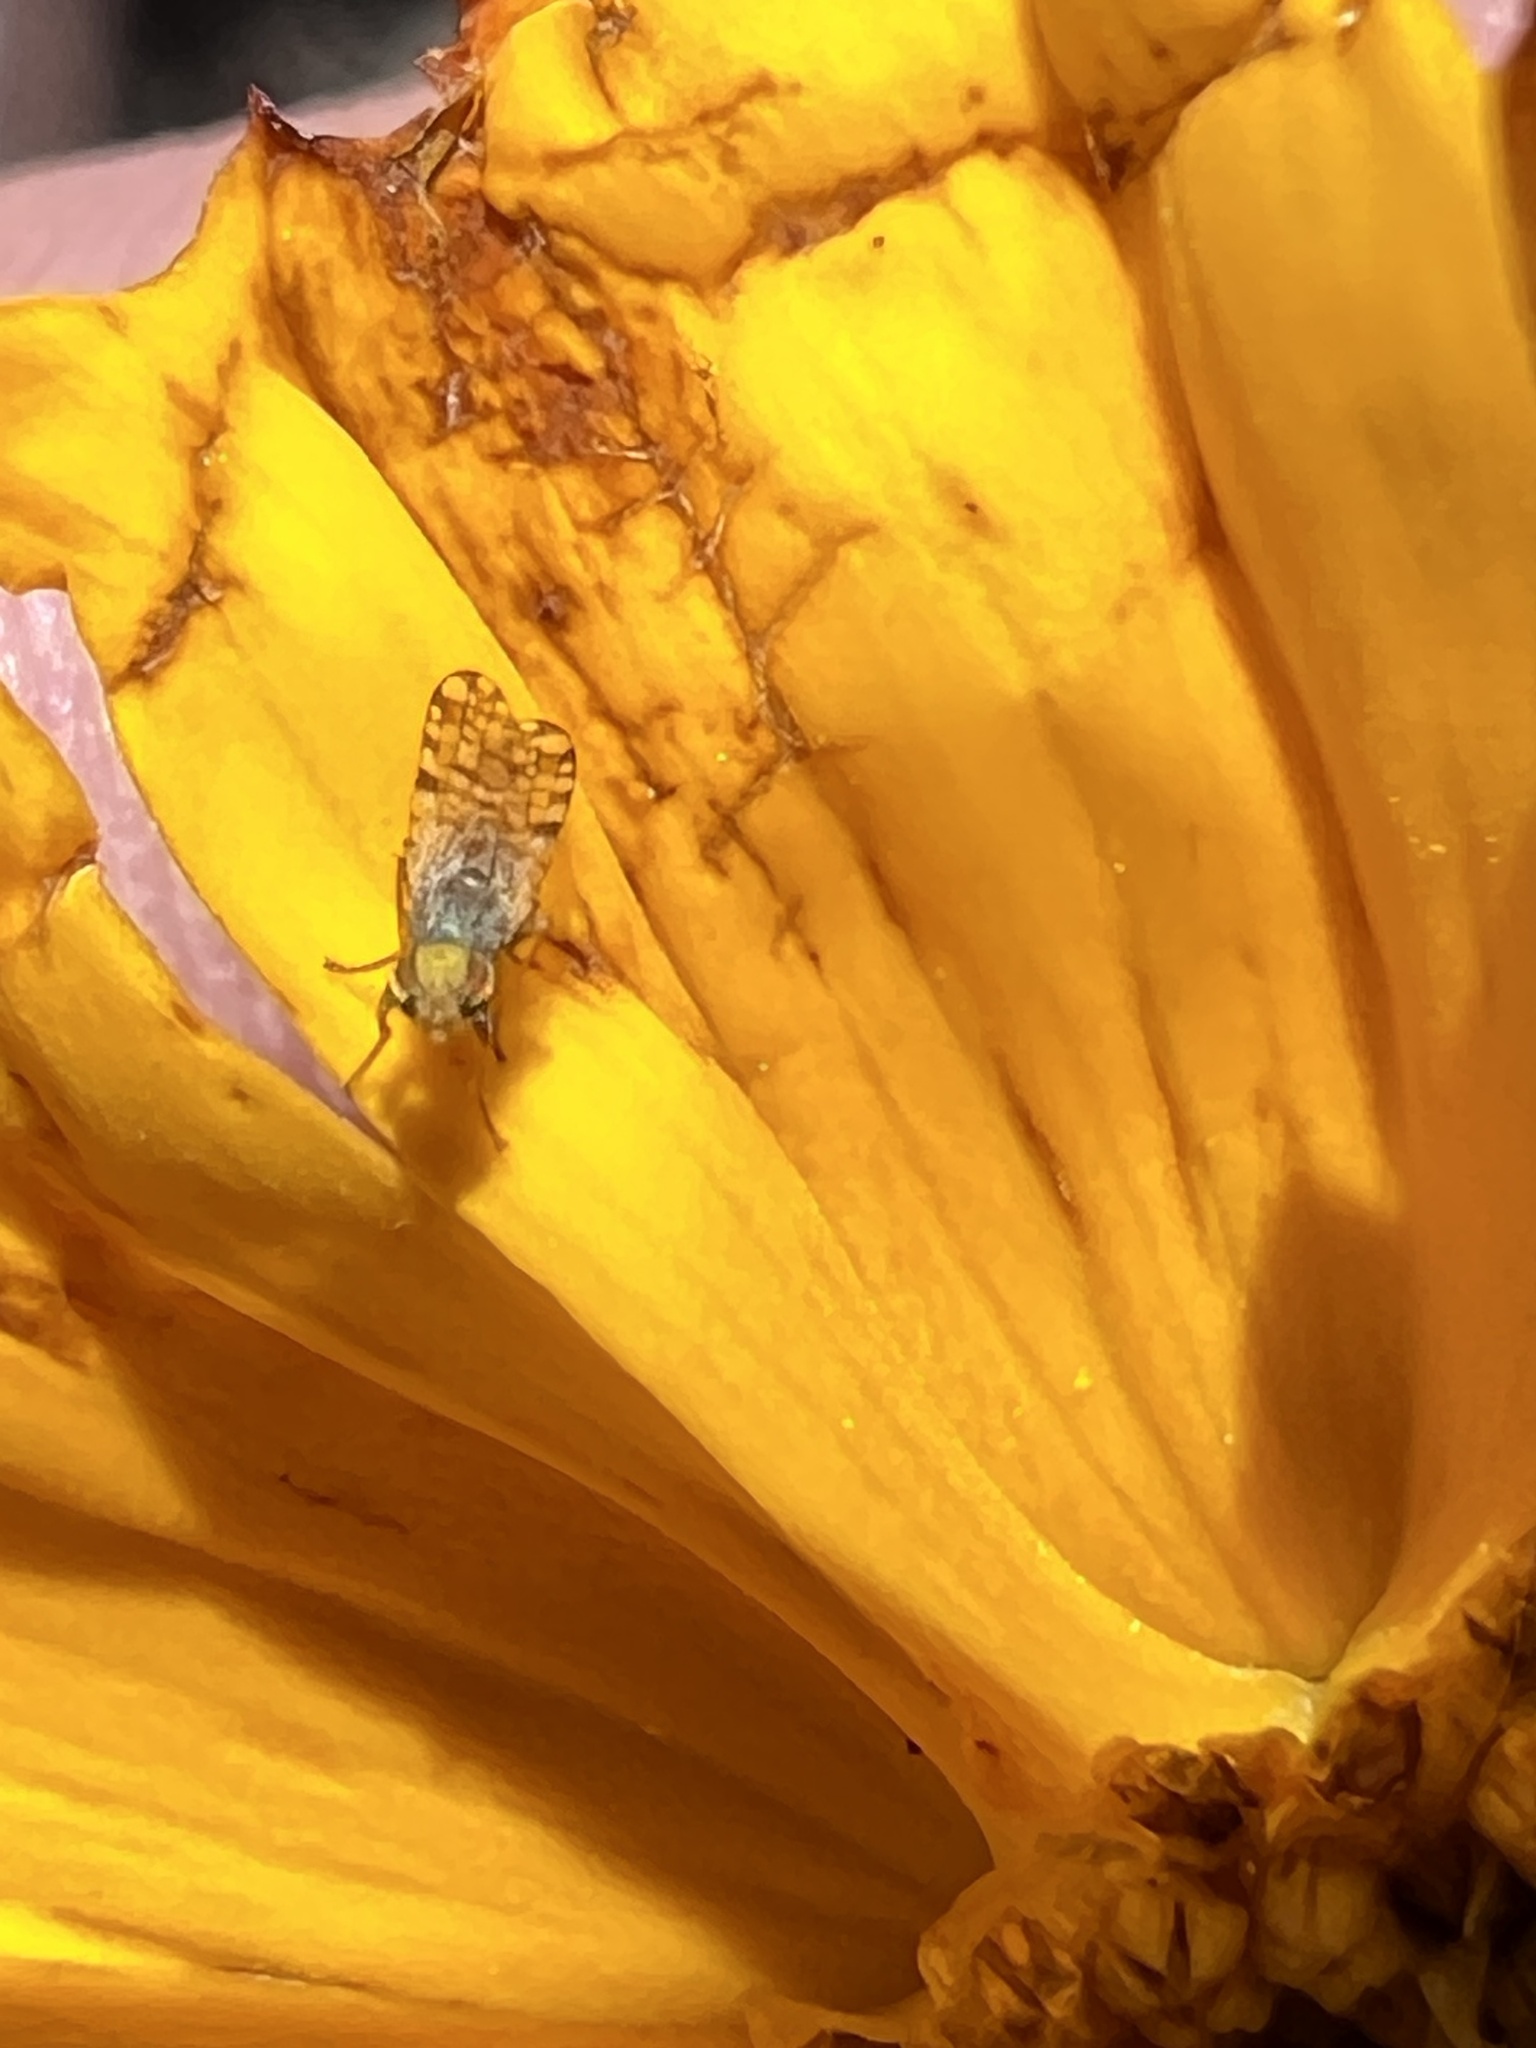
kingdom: Animalia
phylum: Arthropoda
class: Insecta
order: Diptera
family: Tephritidae
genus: Dioxyna
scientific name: Dioxyna picciola
